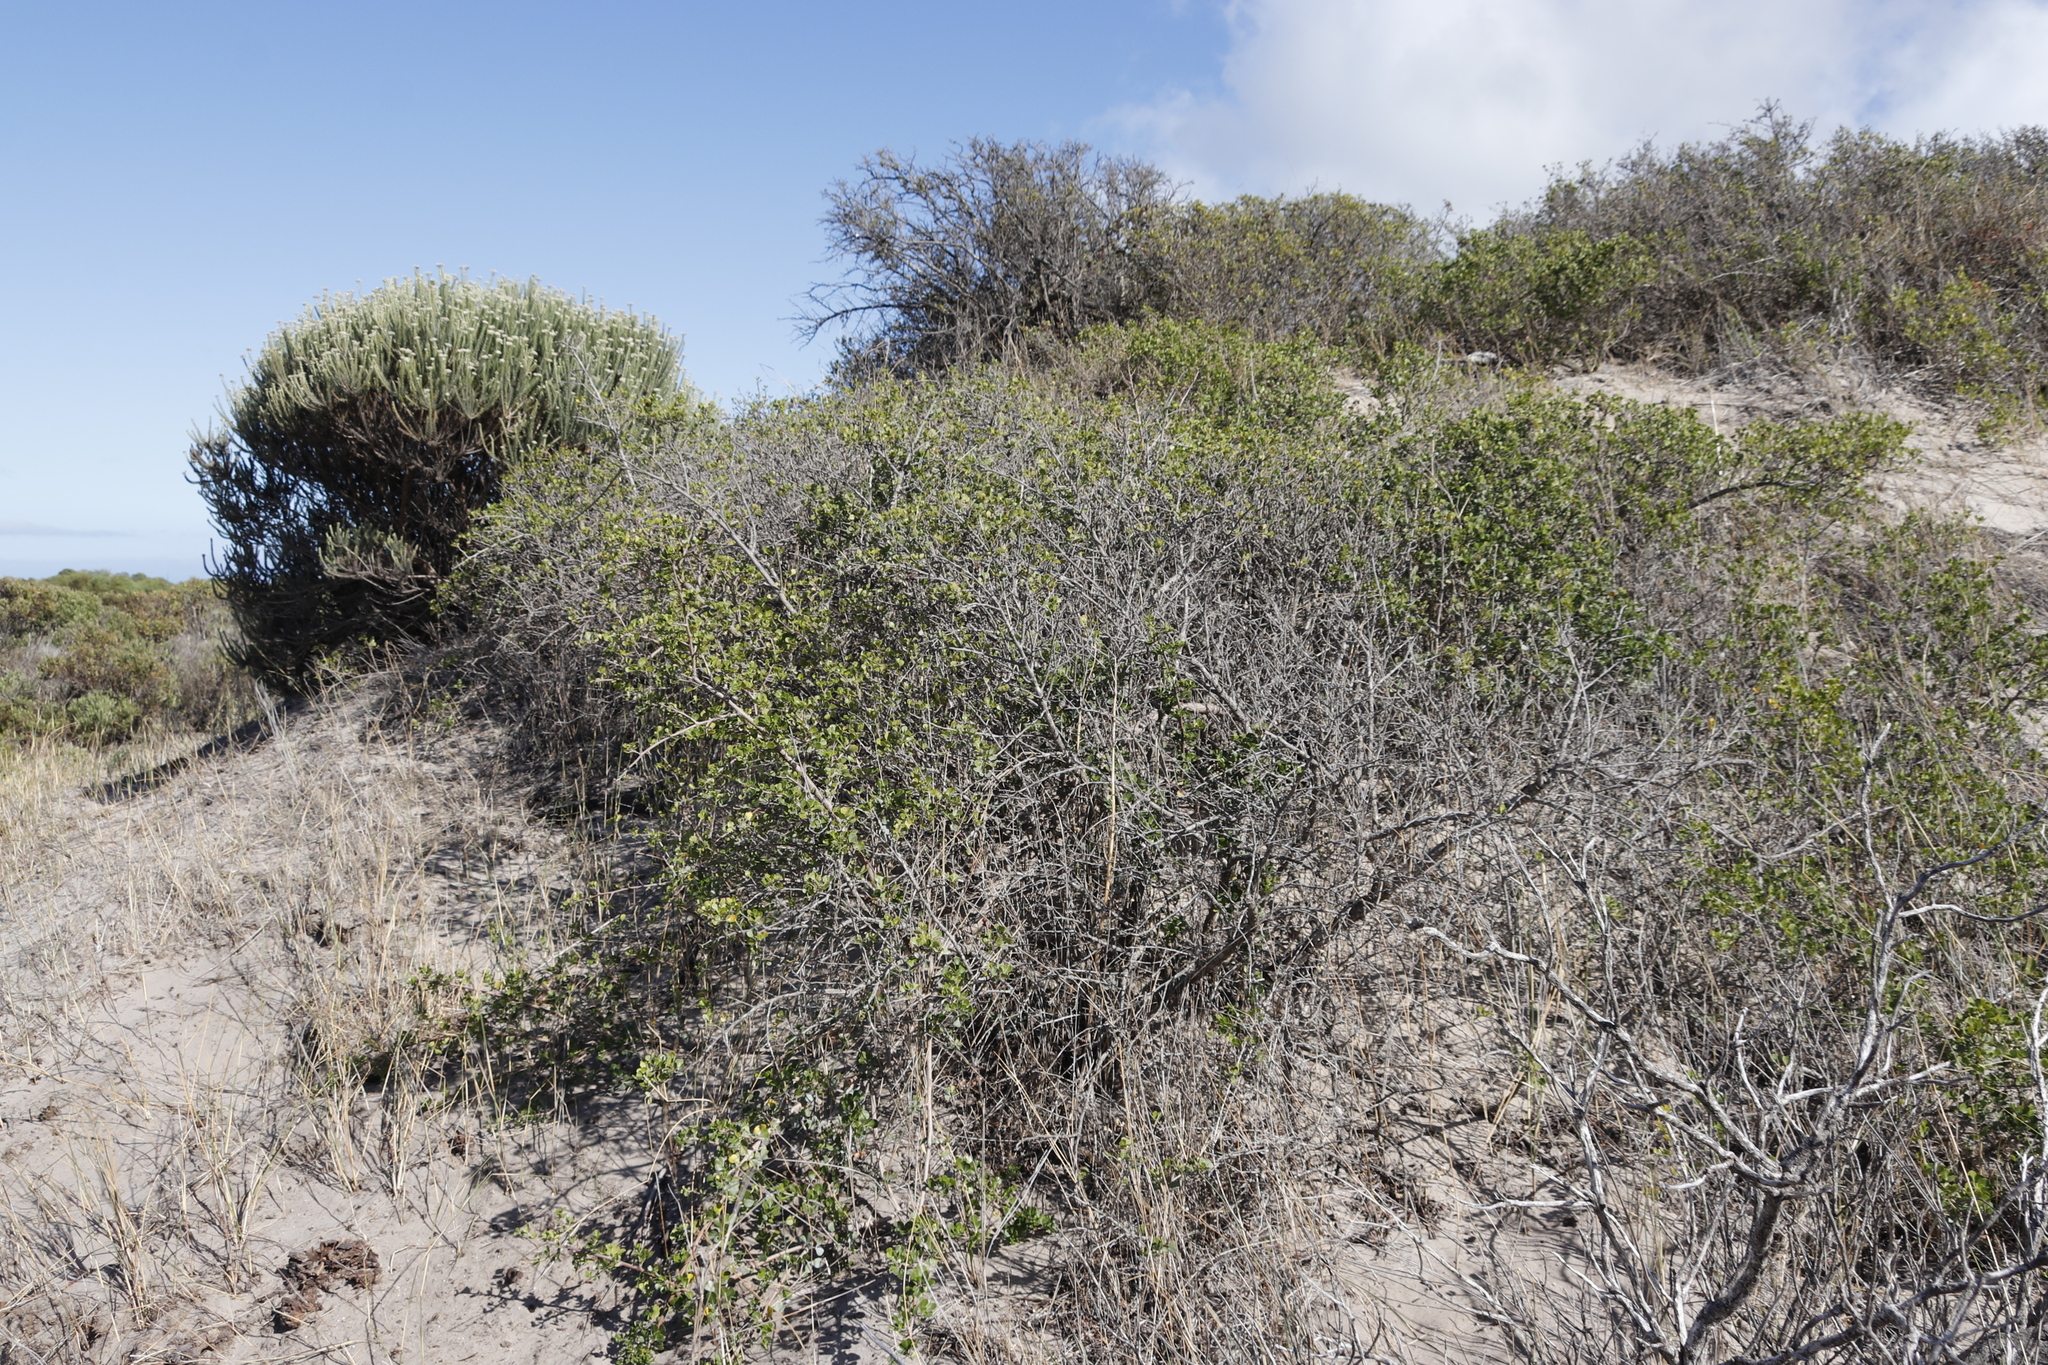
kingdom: Plantae
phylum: Tracheophyta
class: Magnoliopsida
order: Sapindales
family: Anacardiaceae
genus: Searsia
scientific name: Searsia glauca
